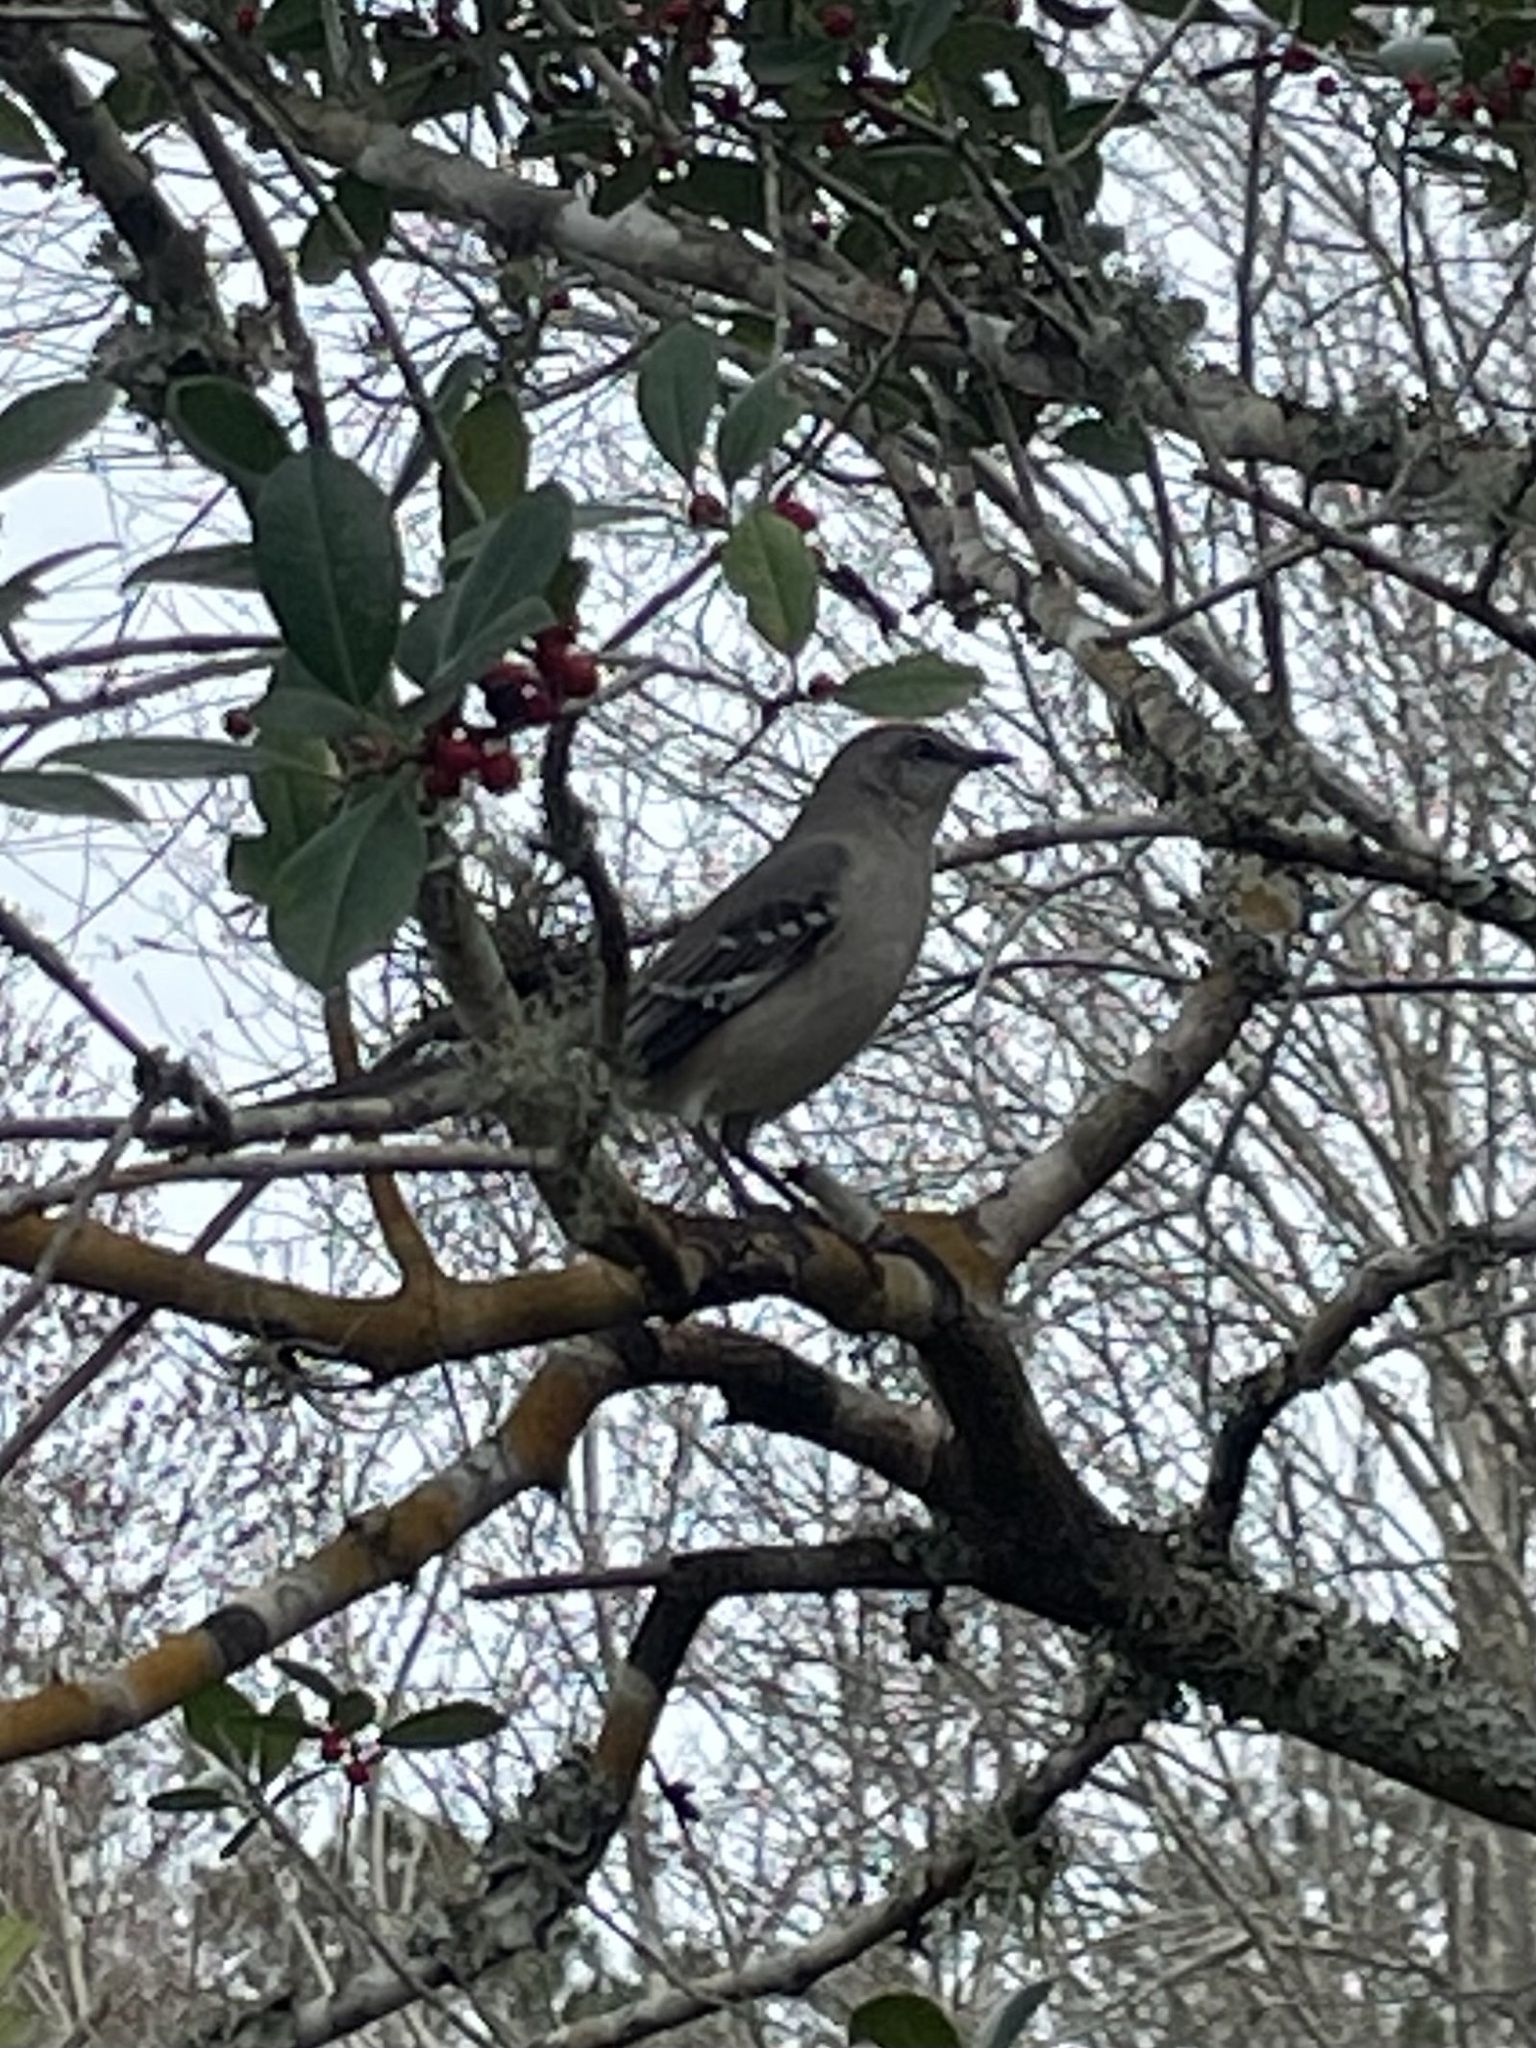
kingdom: Animalia
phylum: Chordata
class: Aves
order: Passeriformes
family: Mimidae
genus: Mimus
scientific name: Mimus polyglottos
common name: Northern mockingbird
